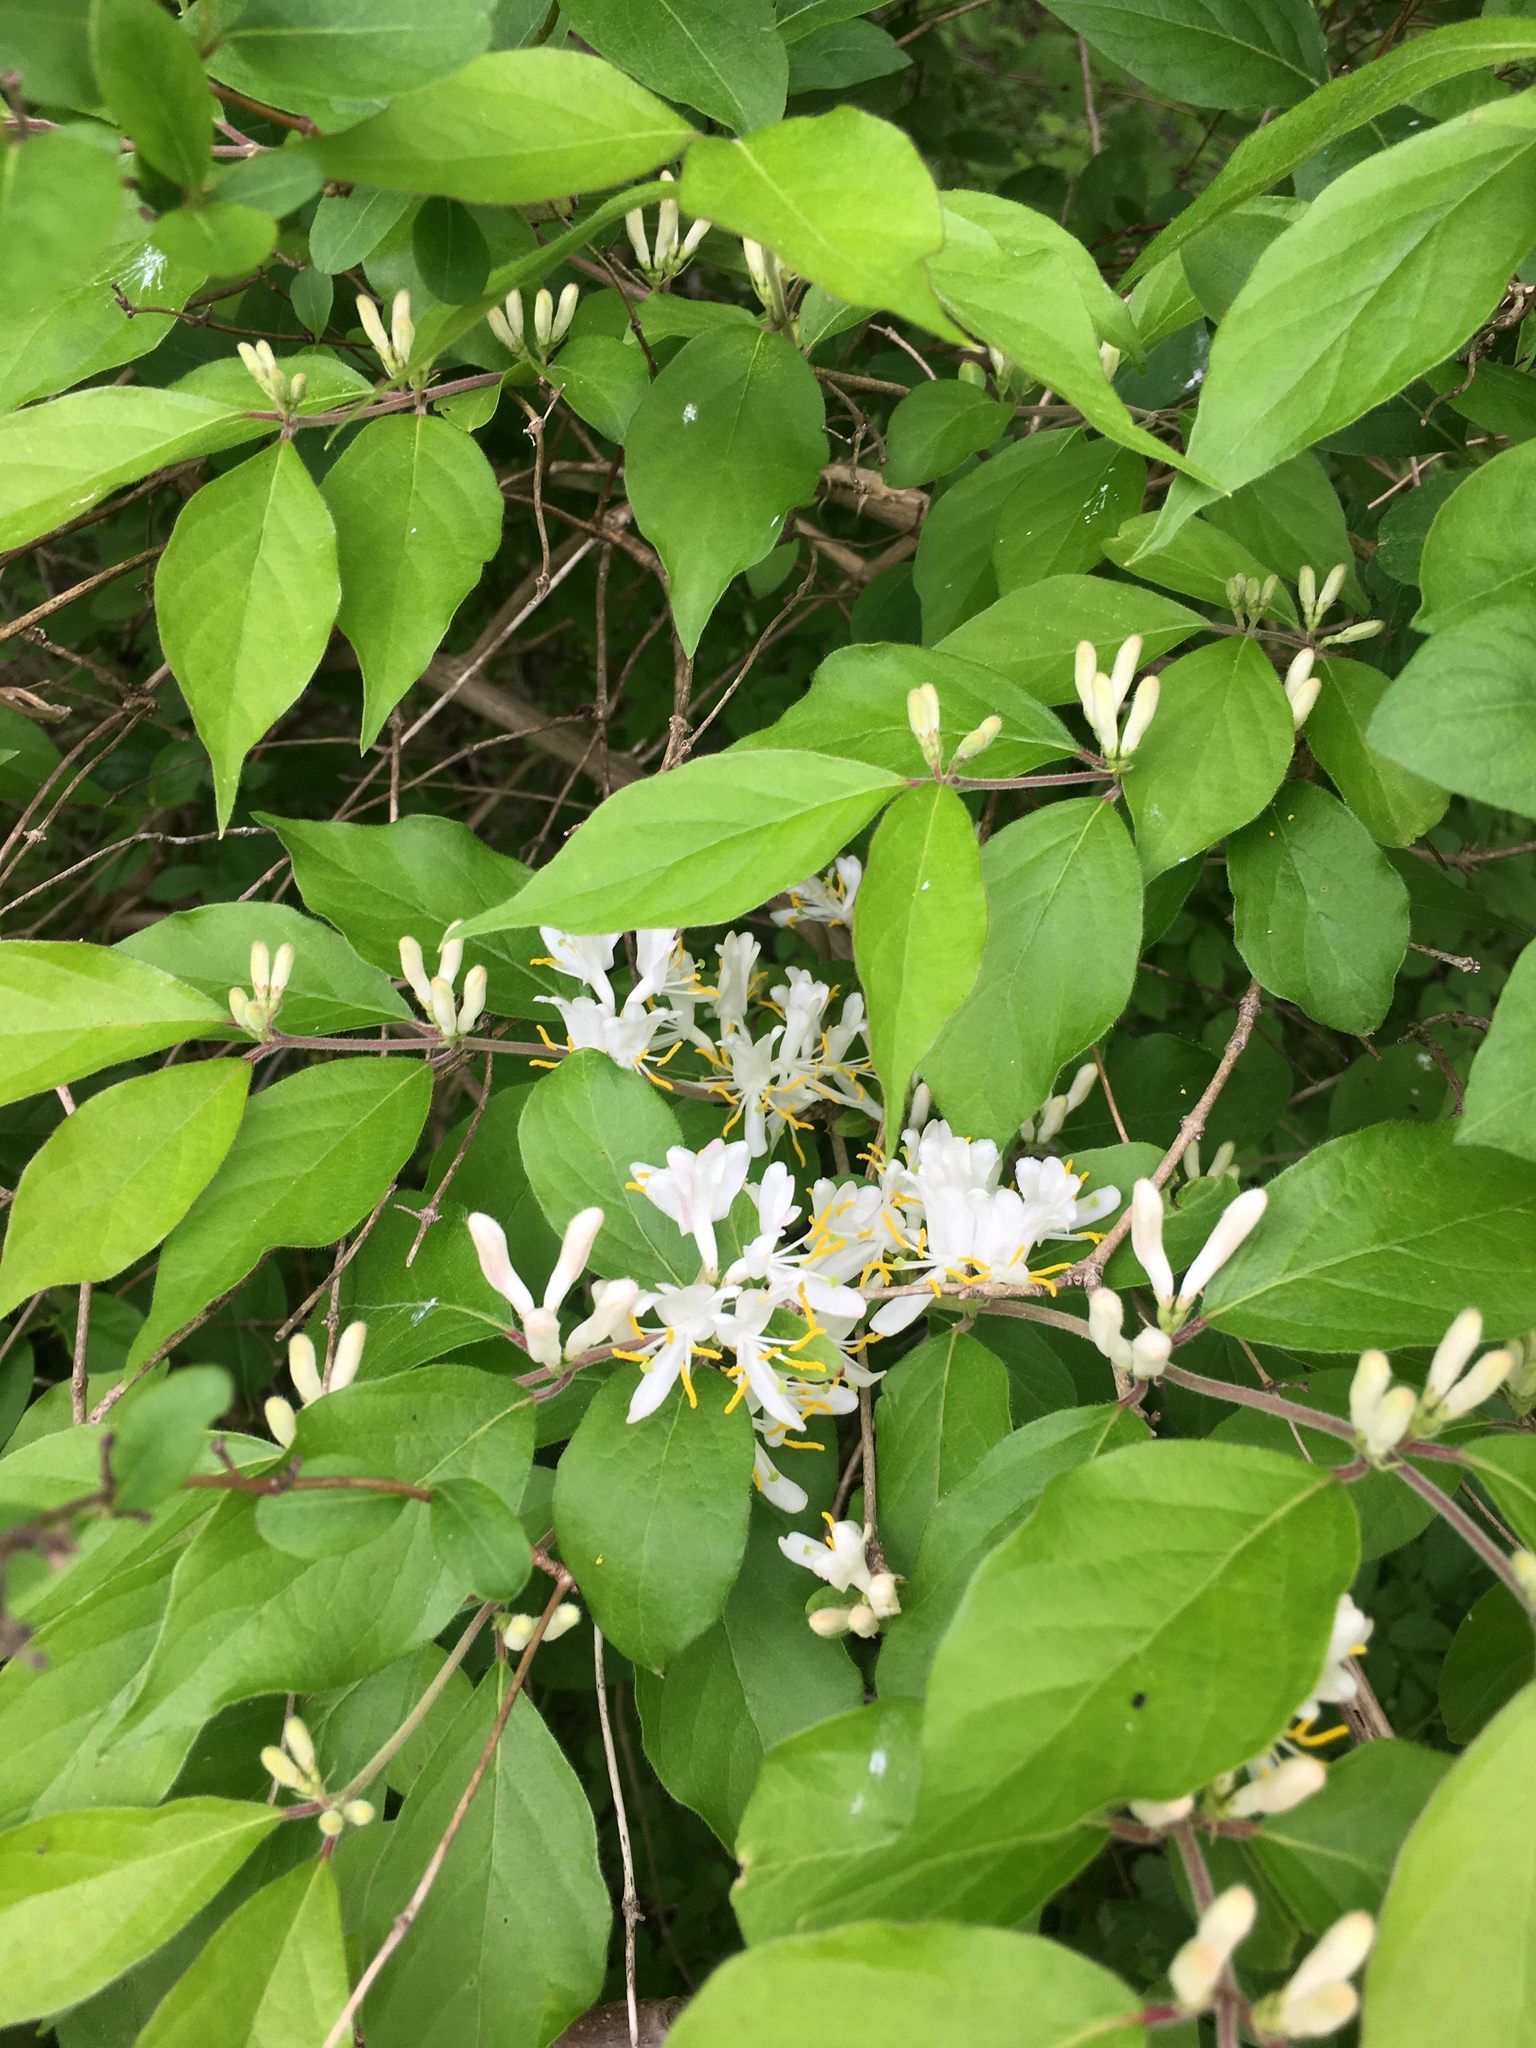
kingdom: Plantae
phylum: Tracheophyta
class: Magnoliopsida
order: Dipsacales
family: Caprifoliaceae
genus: Lonicera
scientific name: Lonicera maackii
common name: Amur honeysuckle
